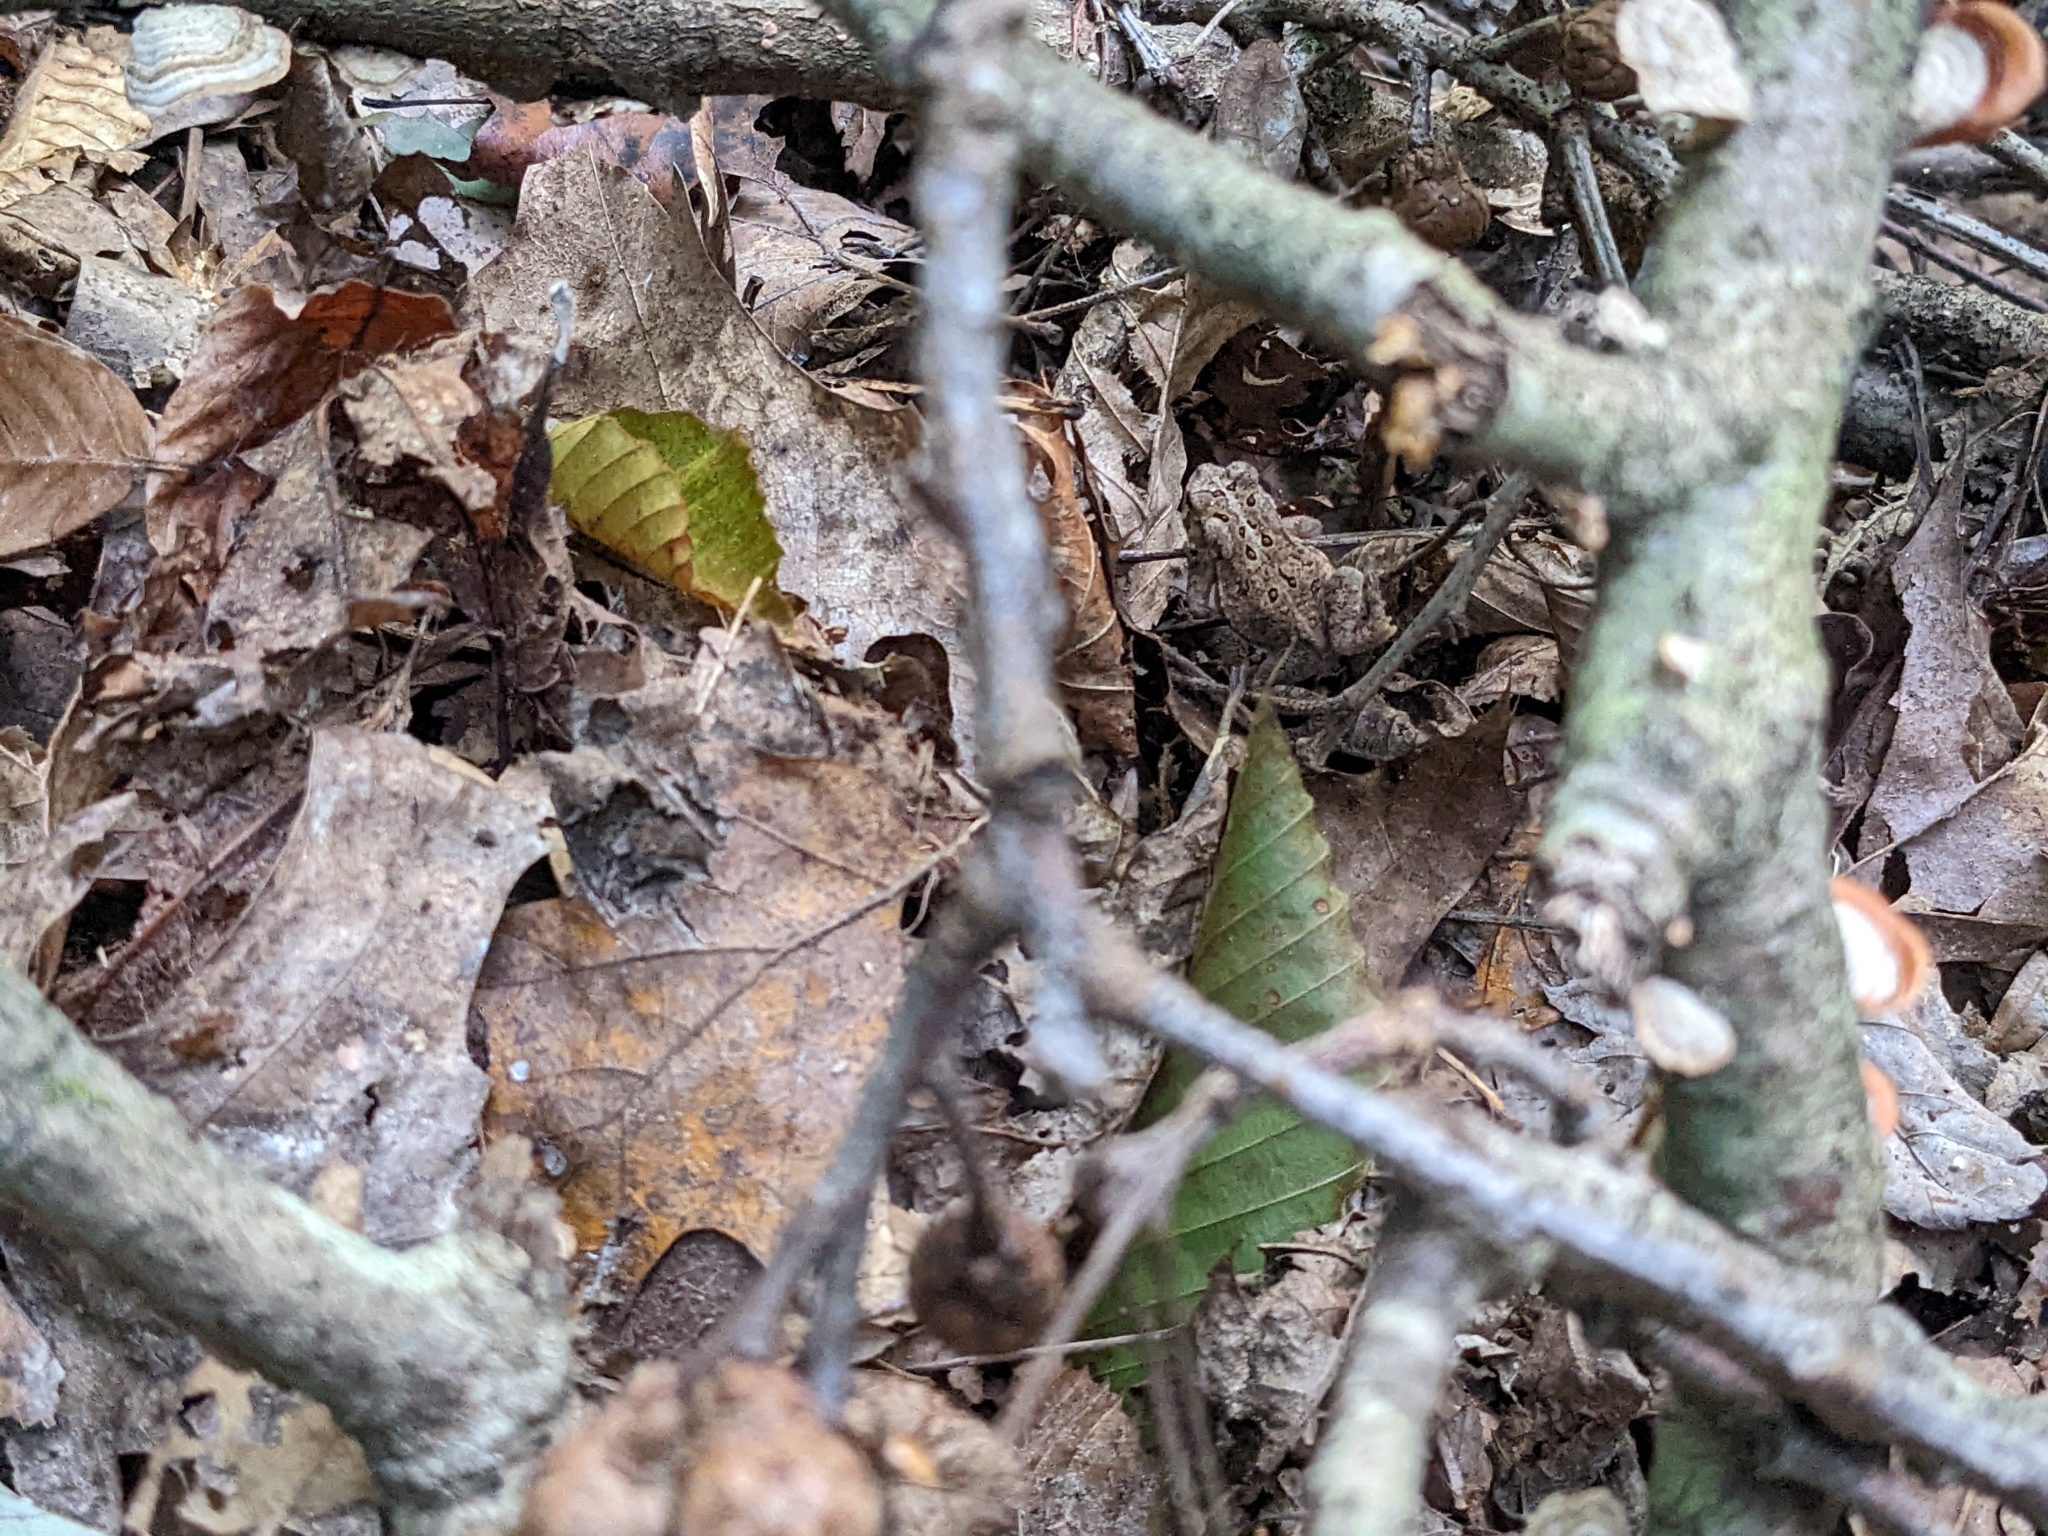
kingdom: Animalia
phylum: Chordata
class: Amphibia
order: Anura
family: Bufonidae
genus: Anaxyrus
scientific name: Anaxyrus americanus
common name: American toad
